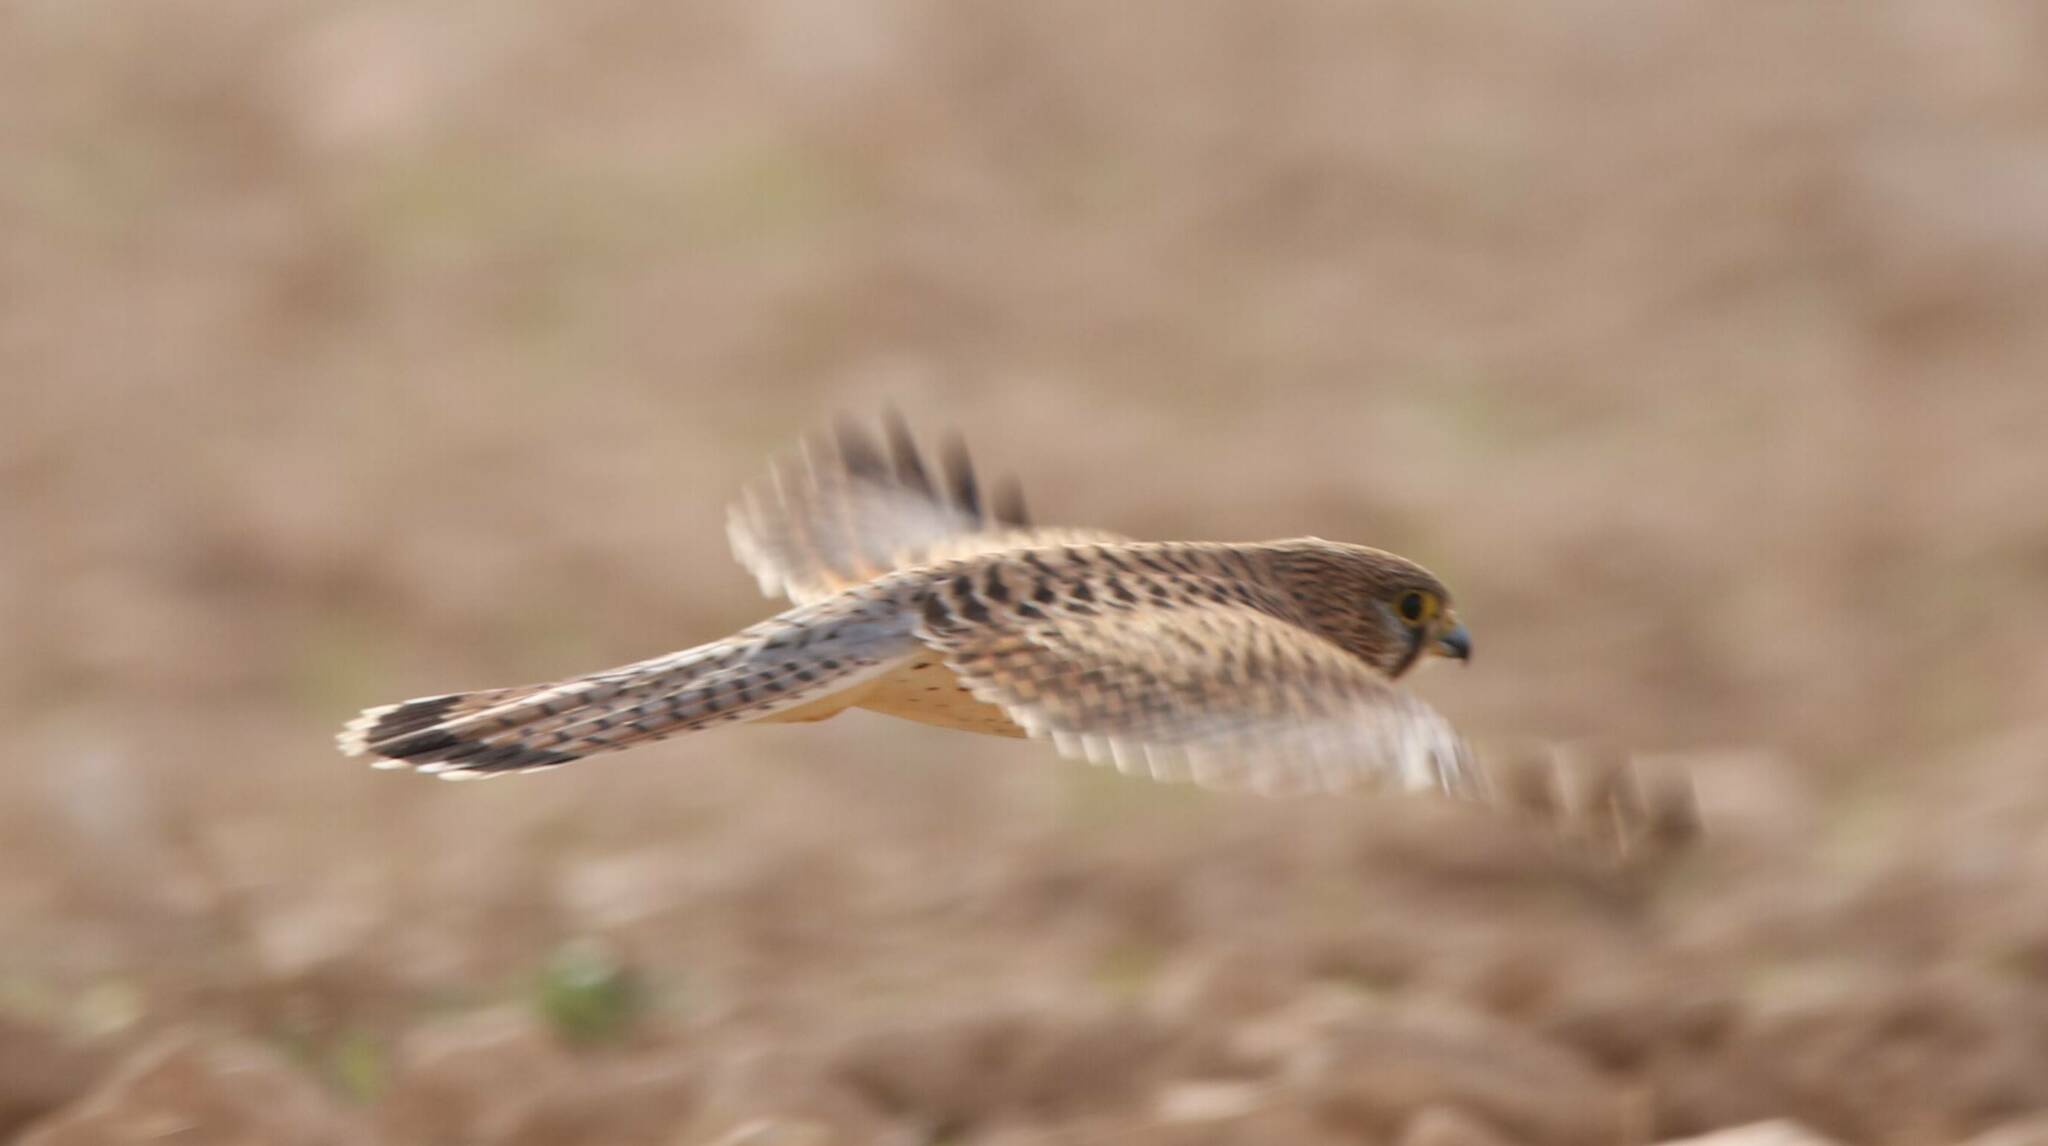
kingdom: Animalia
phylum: Chordata
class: Aves
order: Falconiformes
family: Falconidae
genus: Falco
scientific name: Falco tinnunculus
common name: Common kestrel
